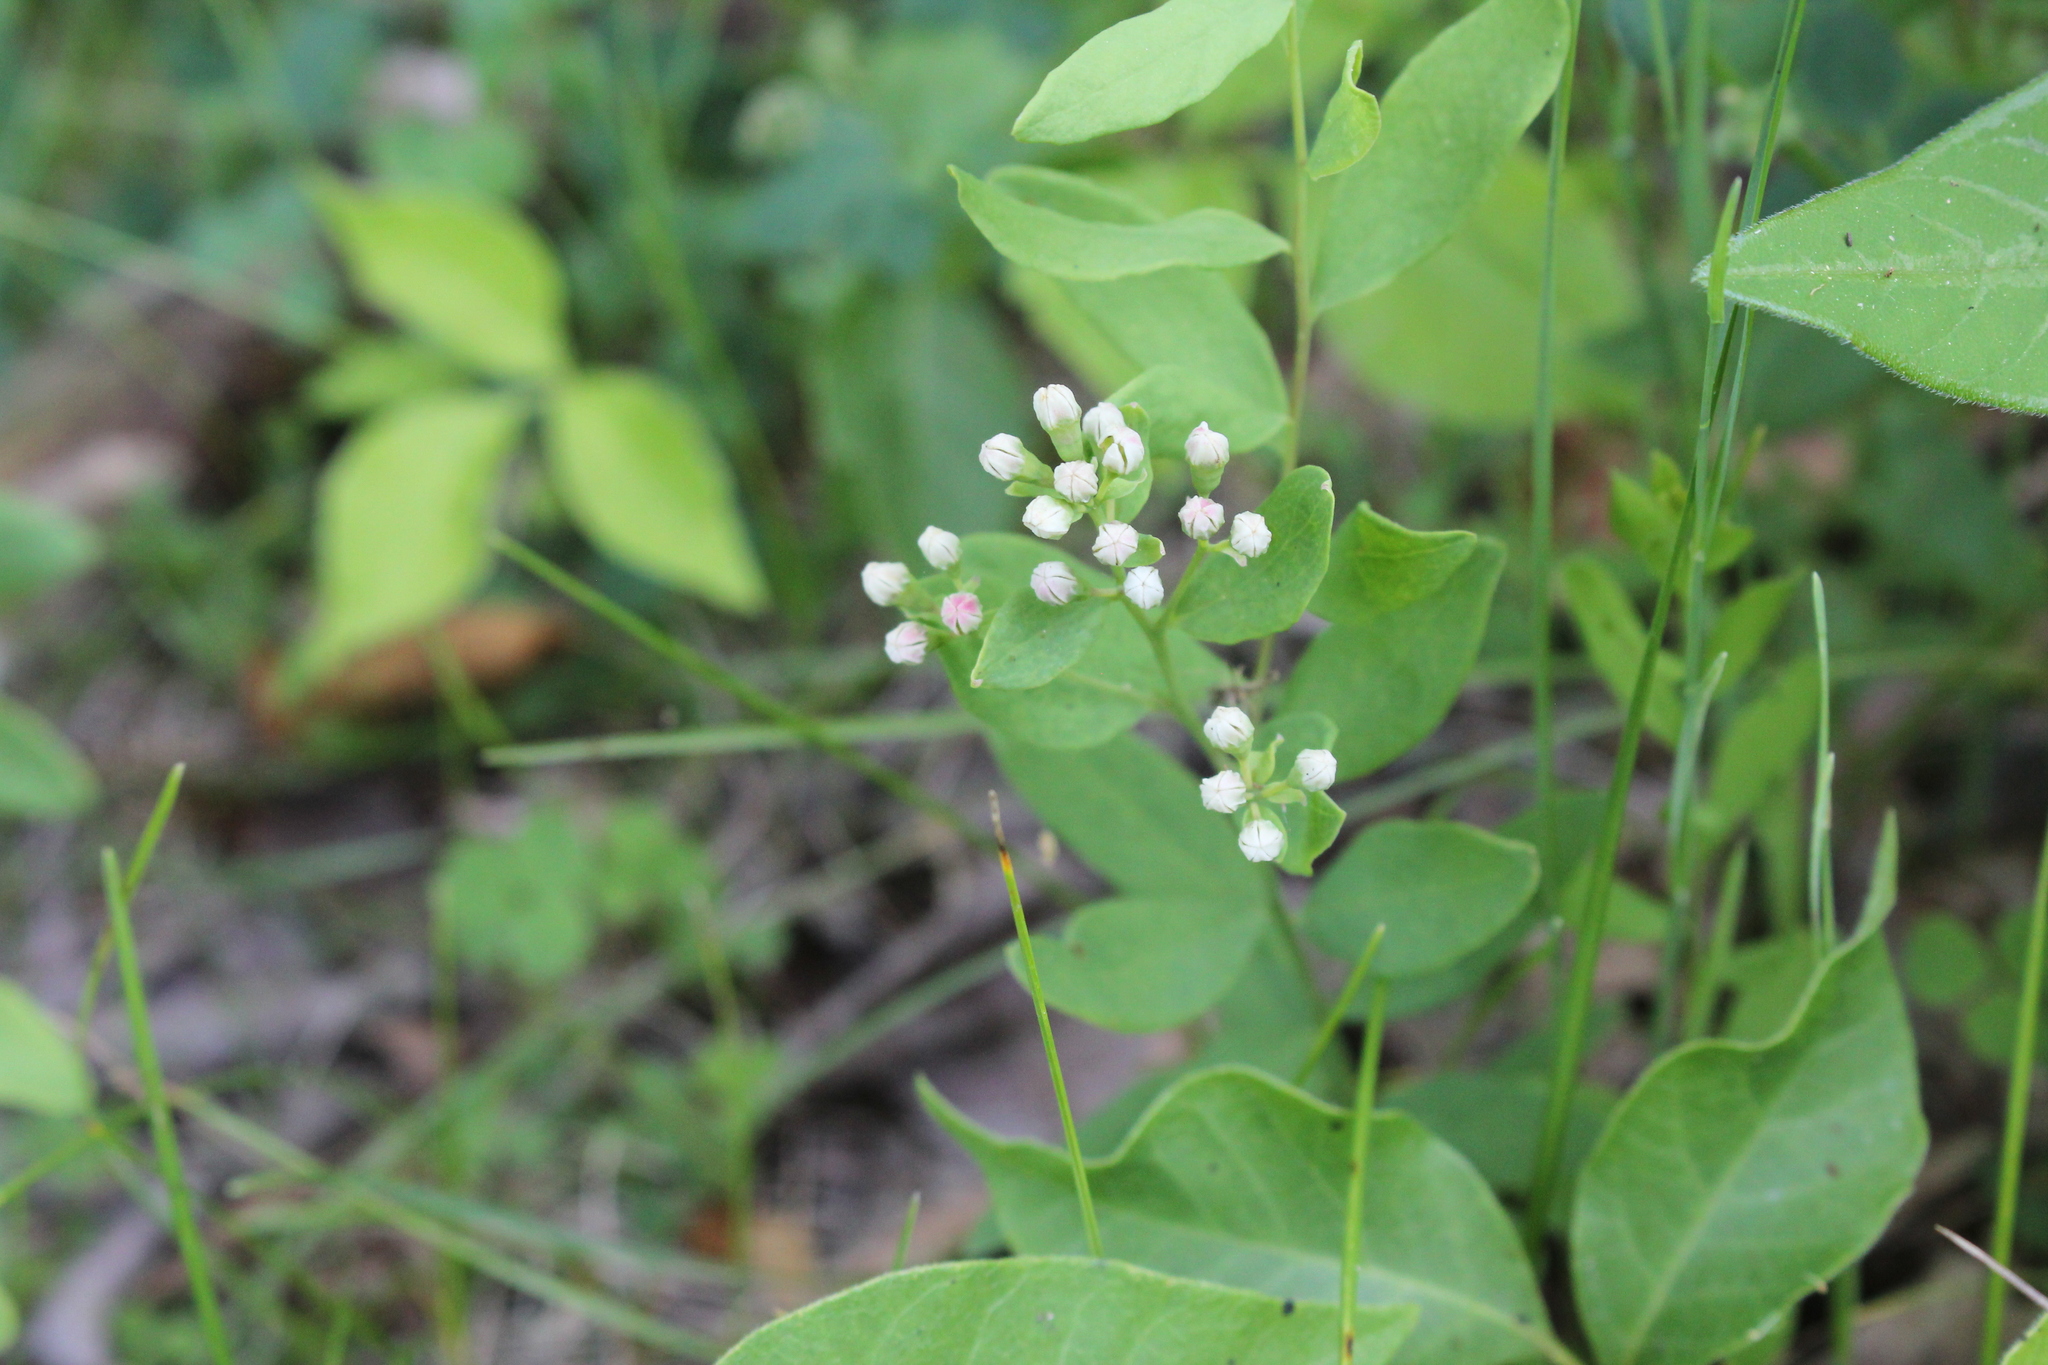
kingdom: Plantae
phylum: Tracheophyta
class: Magnoliopsida
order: Santalales
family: Comandraceae
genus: Comandra
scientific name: Comandra umbellata
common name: Bastard toadflax
